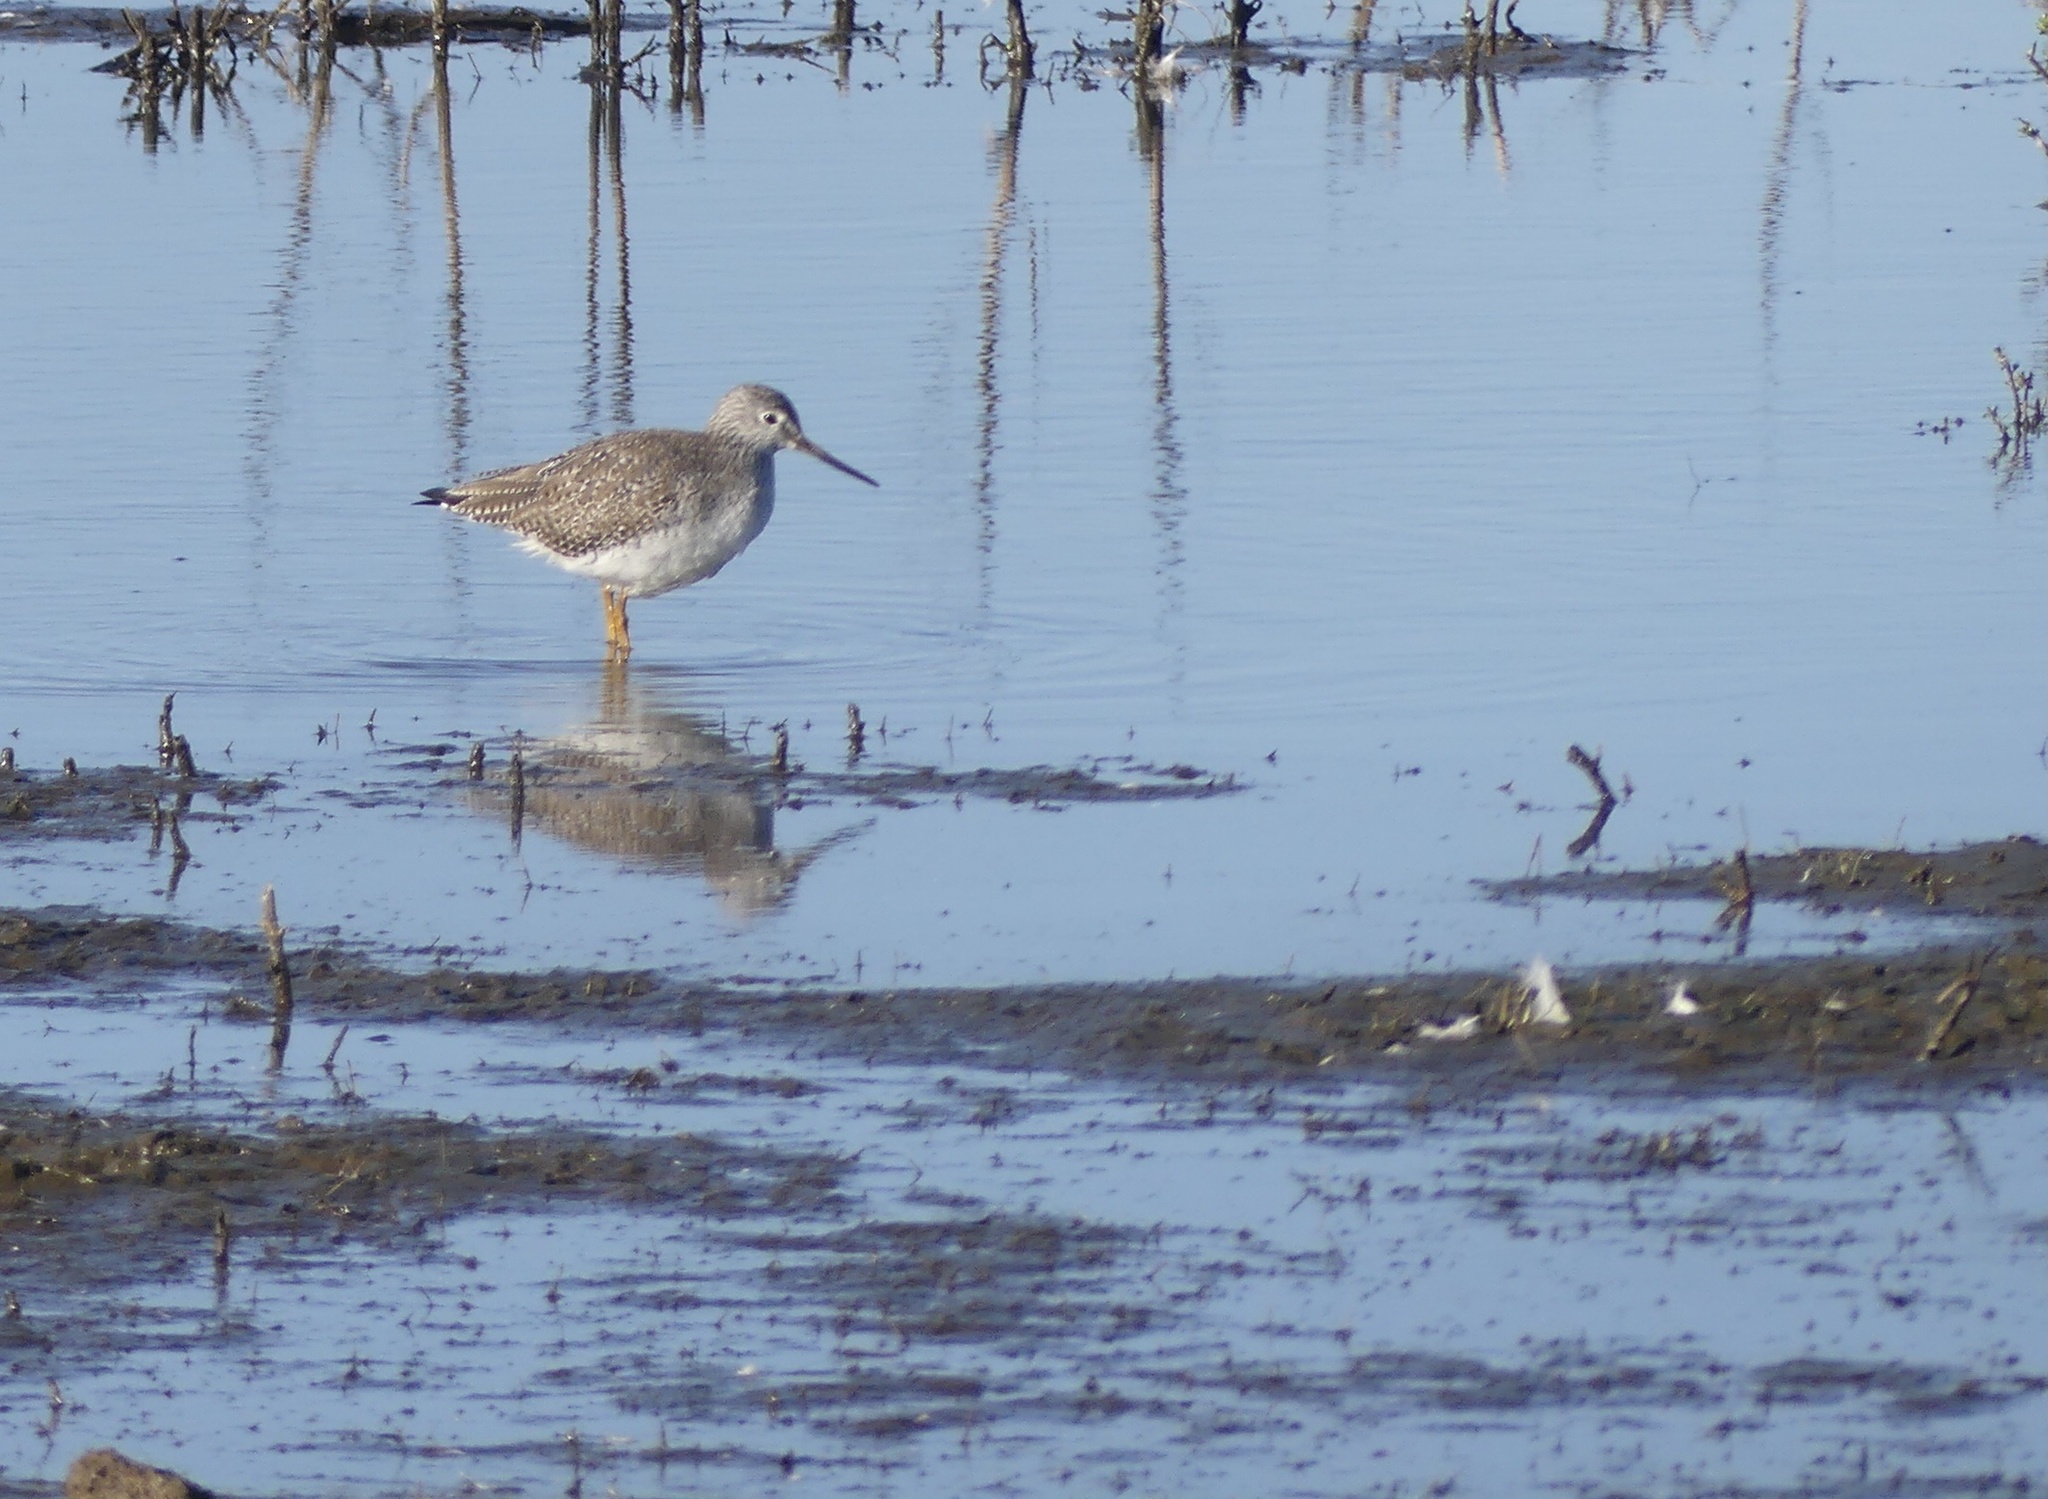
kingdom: Animalia
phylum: Chordata
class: Aves
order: Charadriiformes
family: Scolopacidae
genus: Tringa
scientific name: Tringa melanoleuca
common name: Greater yellowlegs
